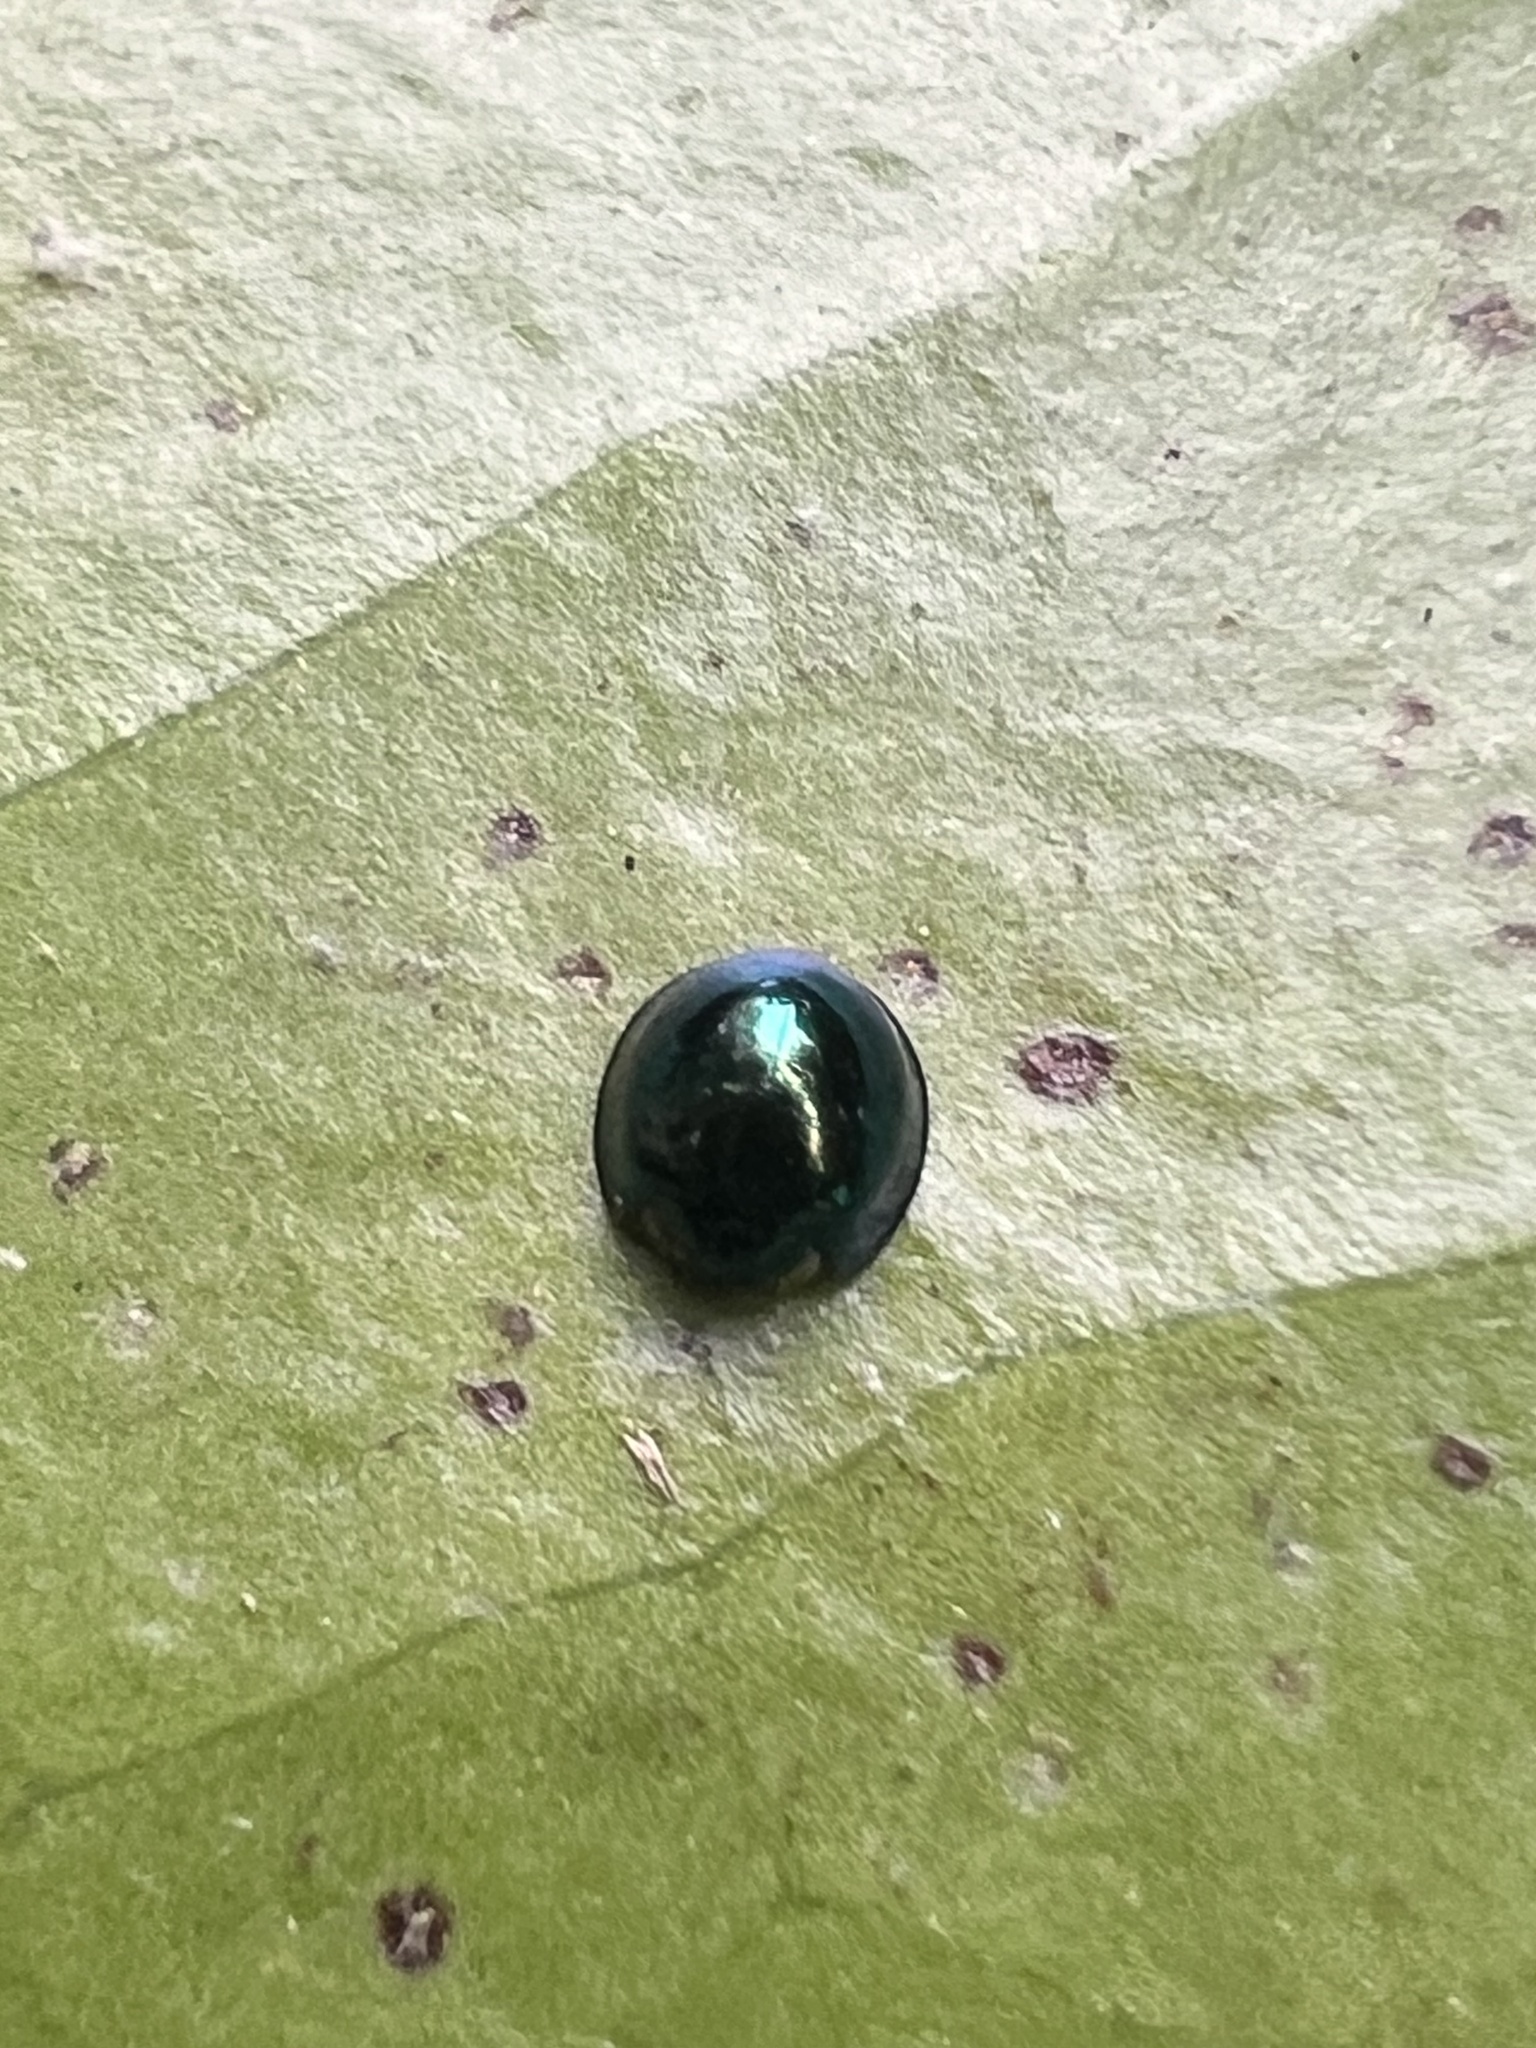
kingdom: Animalia
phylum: Arthropoda
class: Insecta
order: Coleoptera
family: Coccinellidae
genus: Halmus
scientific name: Halmus chalybeus
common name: Steel blue ladybird beetle
